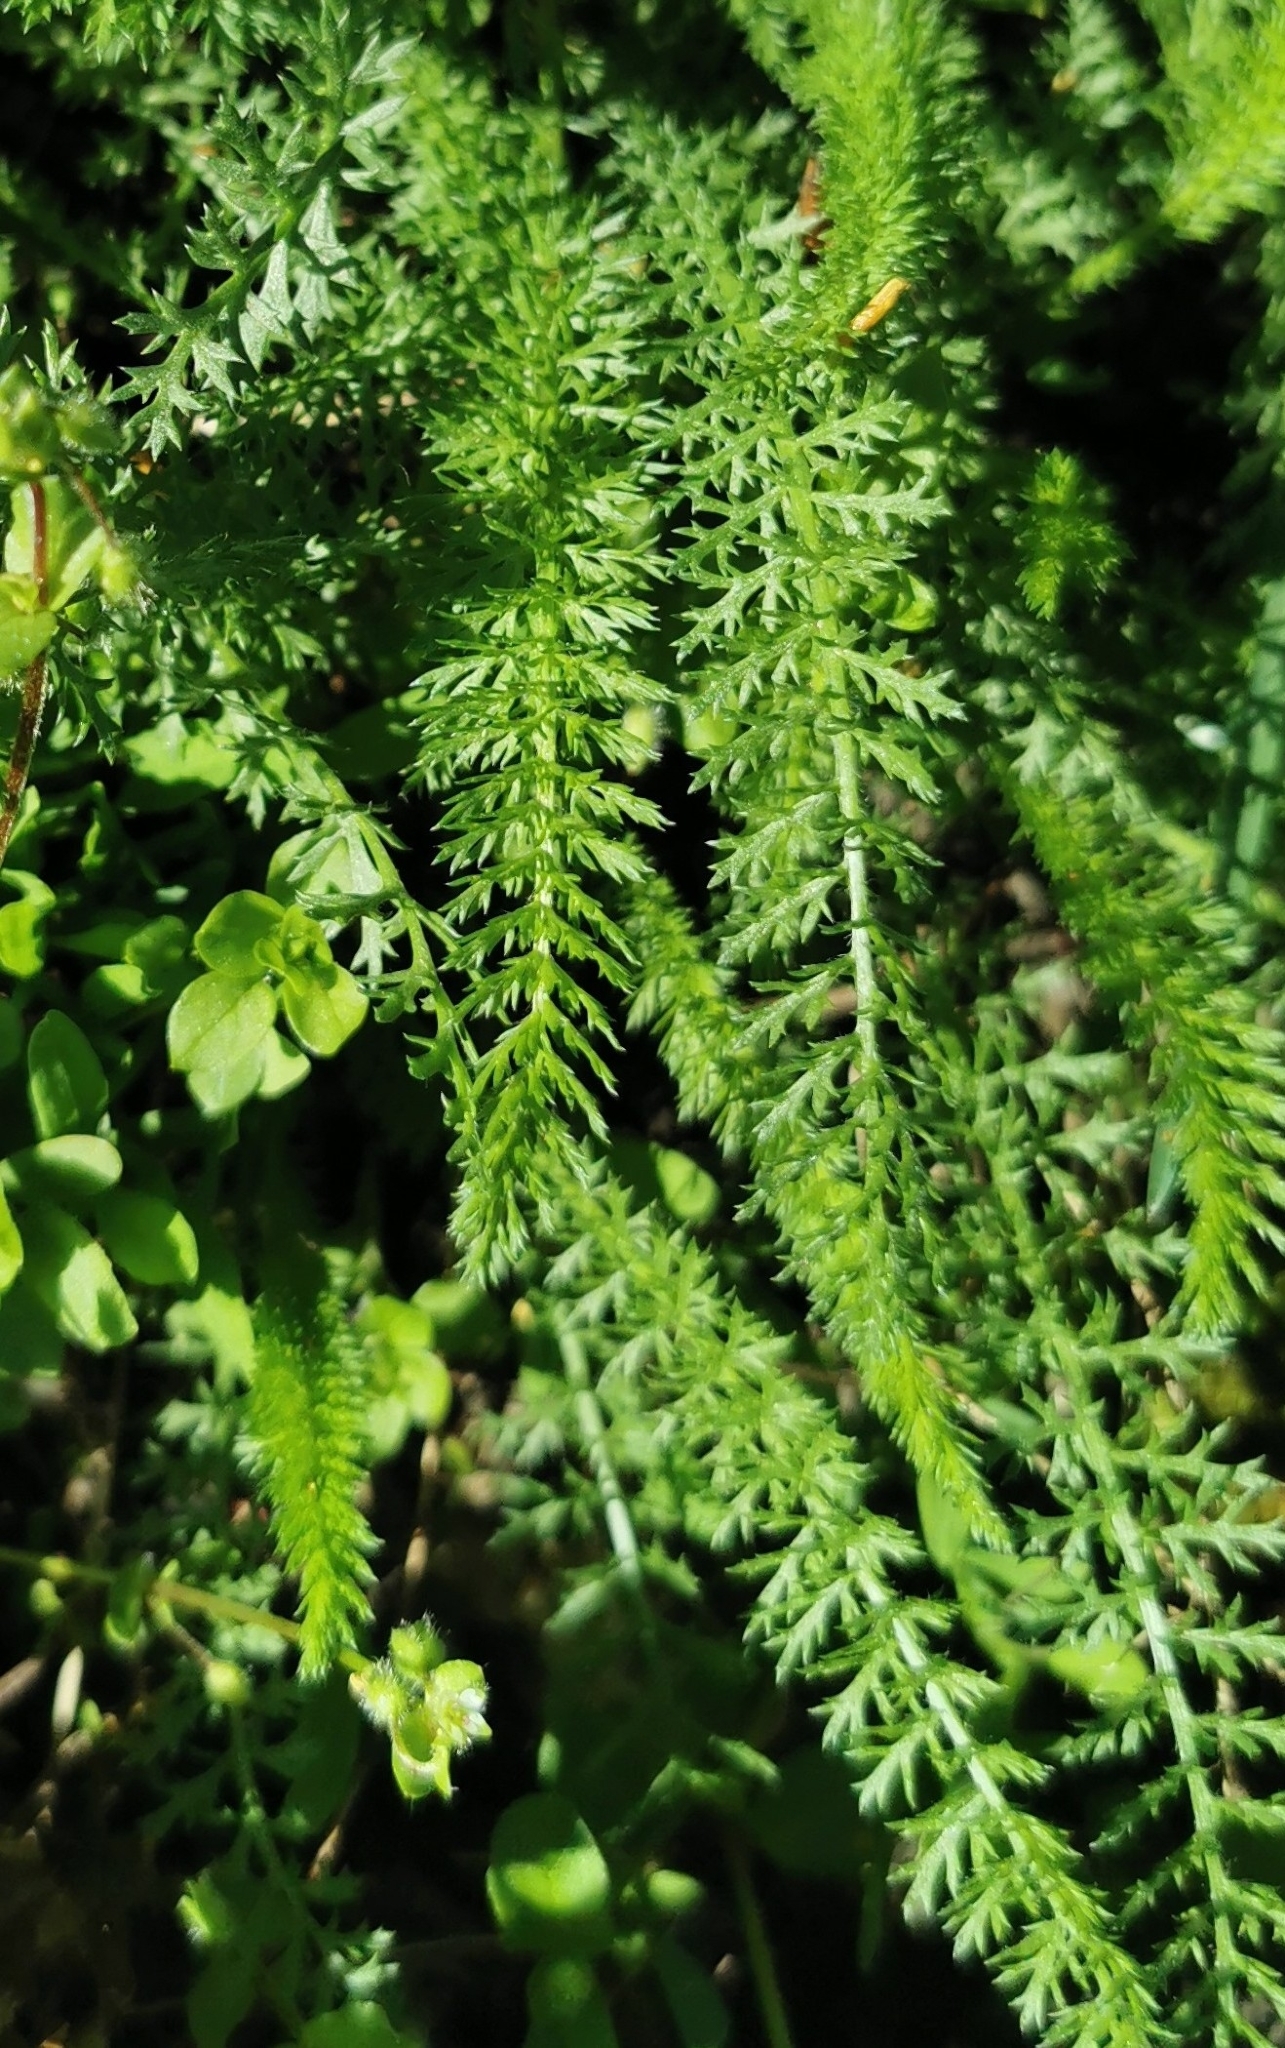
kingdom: Plantae
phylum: Tracheophyta
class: Magnoliopsida
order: Asterales
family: Asteraceae
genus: Achillea
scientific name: Achillea millefolium
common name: Yarrow
